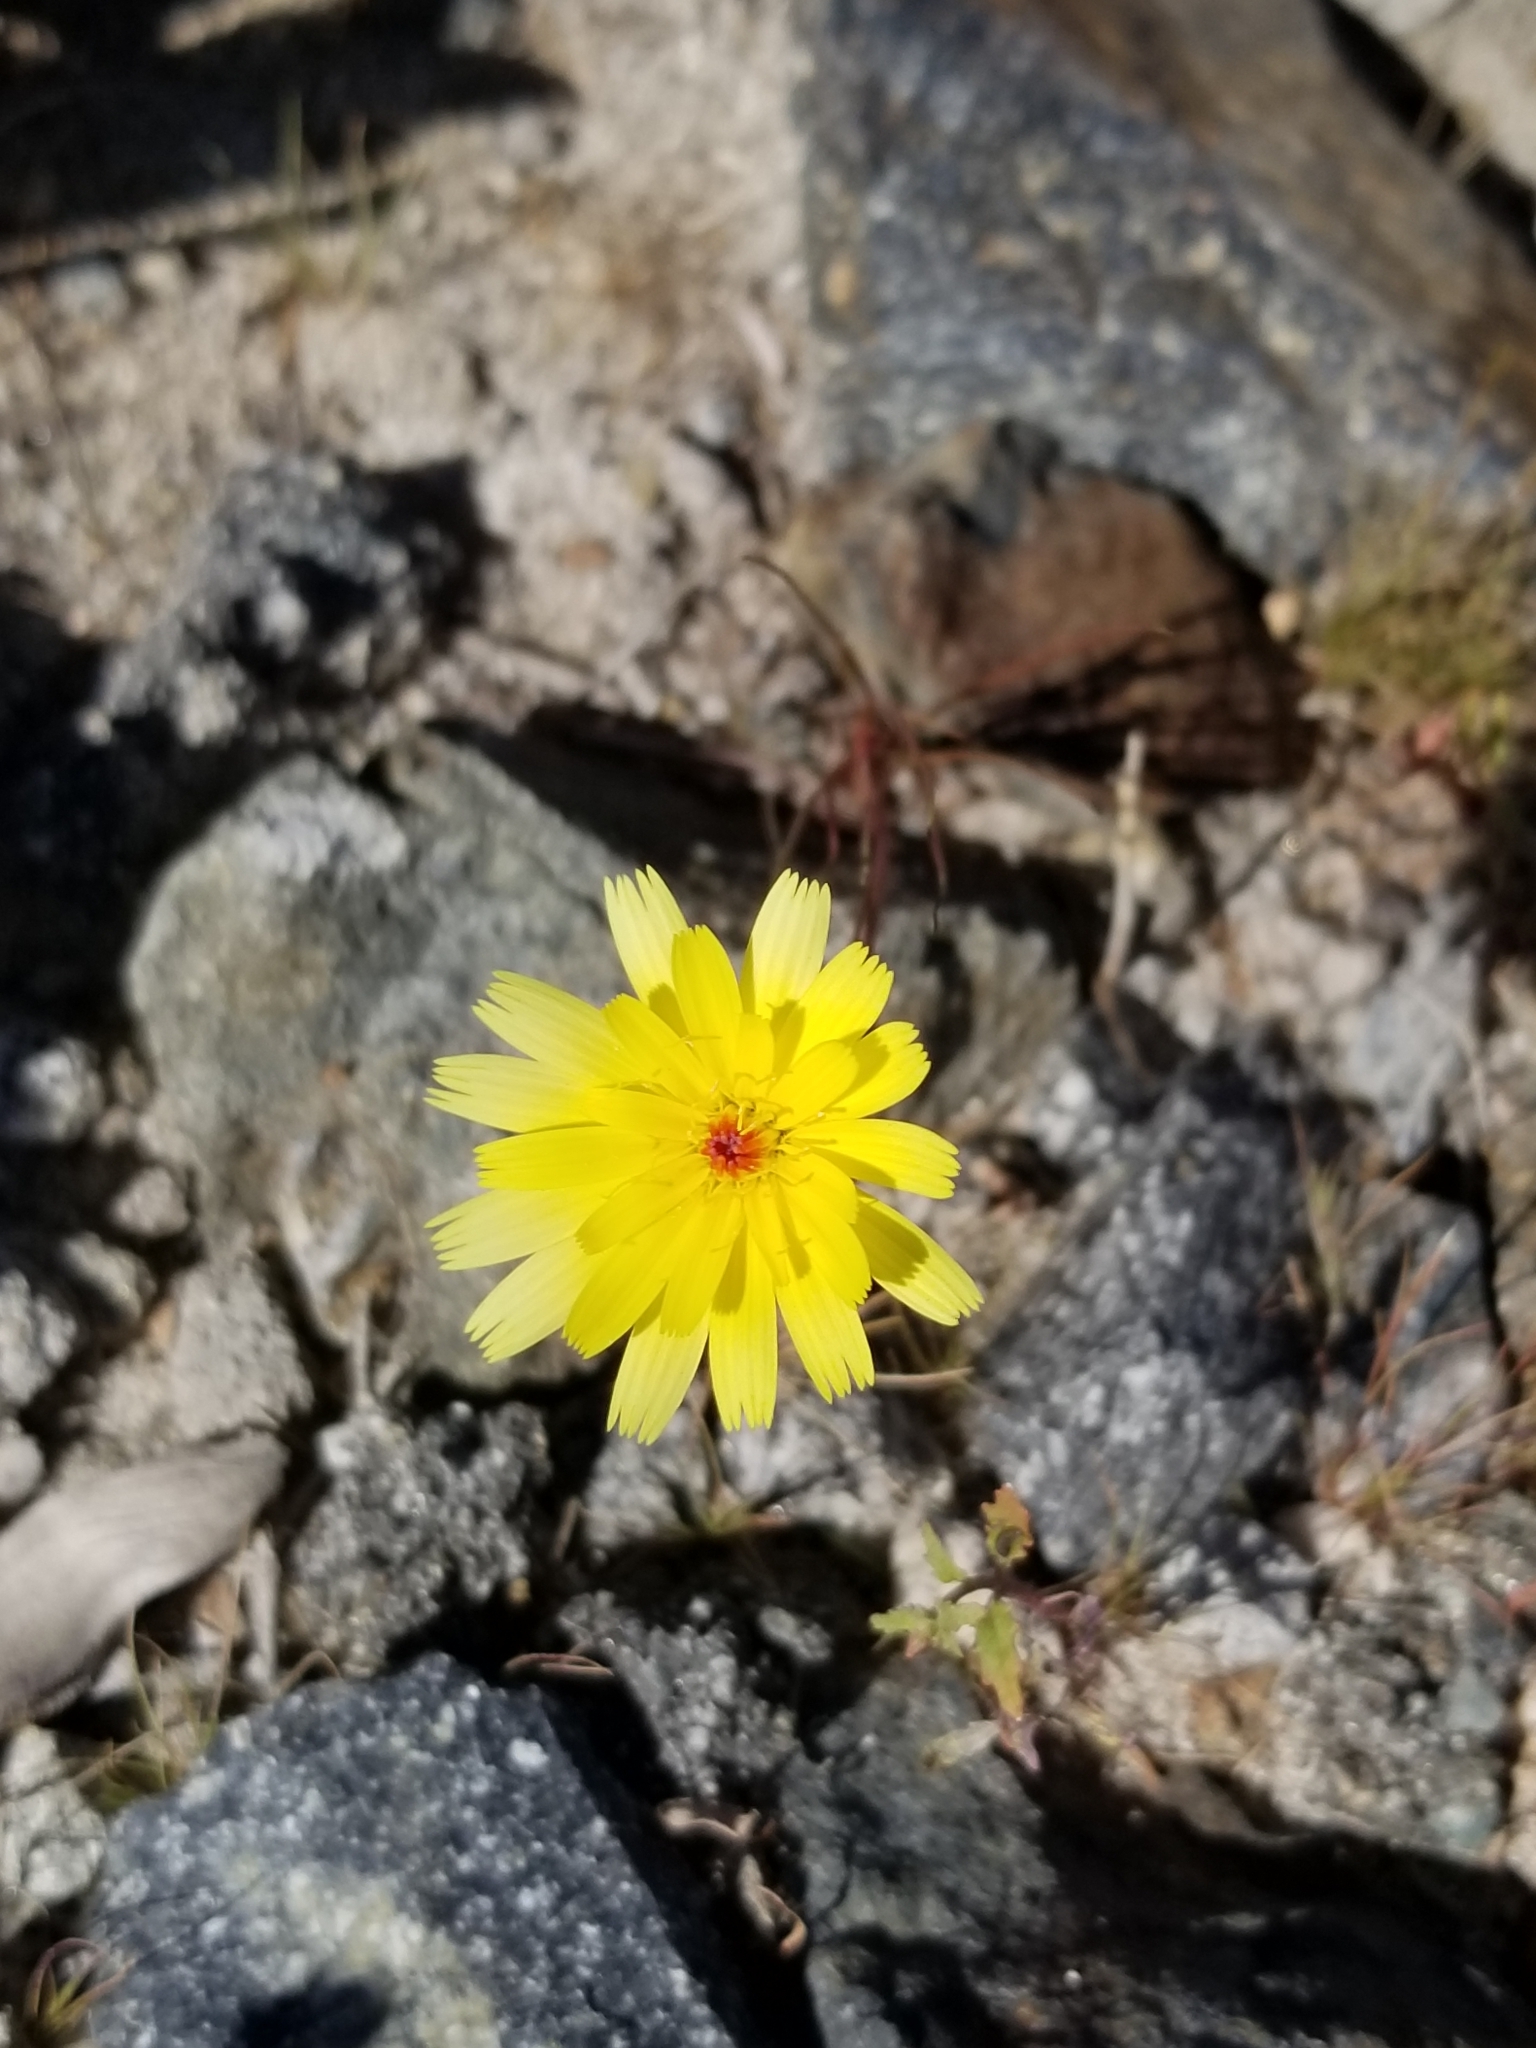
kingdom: Plantae
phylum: Tracheophyta
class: Magnoliopsida
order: Asterales
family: Asteraceae
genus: Malacothrix
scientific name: Malacothrix glabrata
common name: Smooth desert-dandelion
